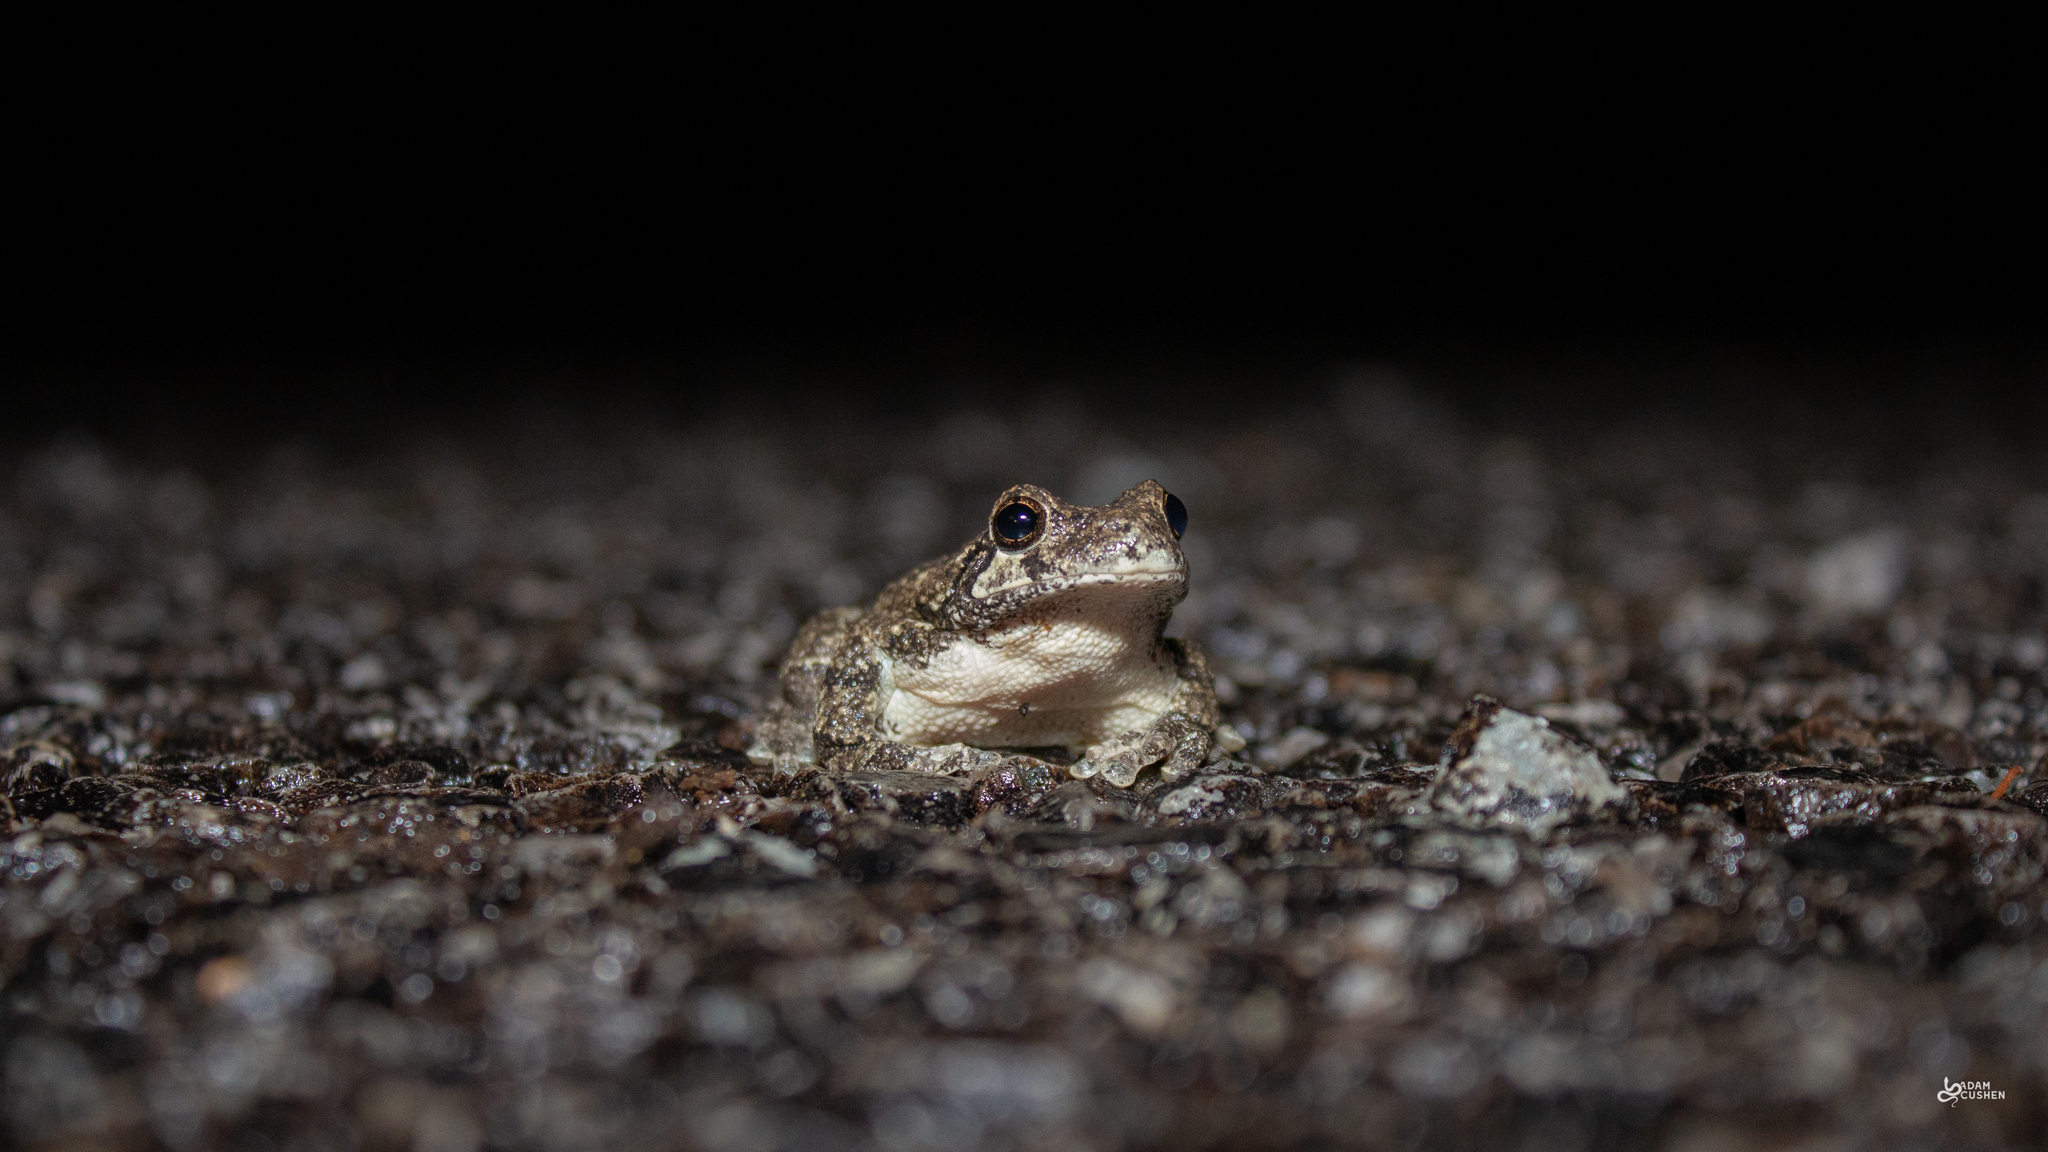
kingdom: Animalia
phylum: Chordata
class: Amphibia
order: Anura
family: Hylidae
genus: Dryophytes
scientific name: Dryophytes versicolor
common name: Gray treefrog
